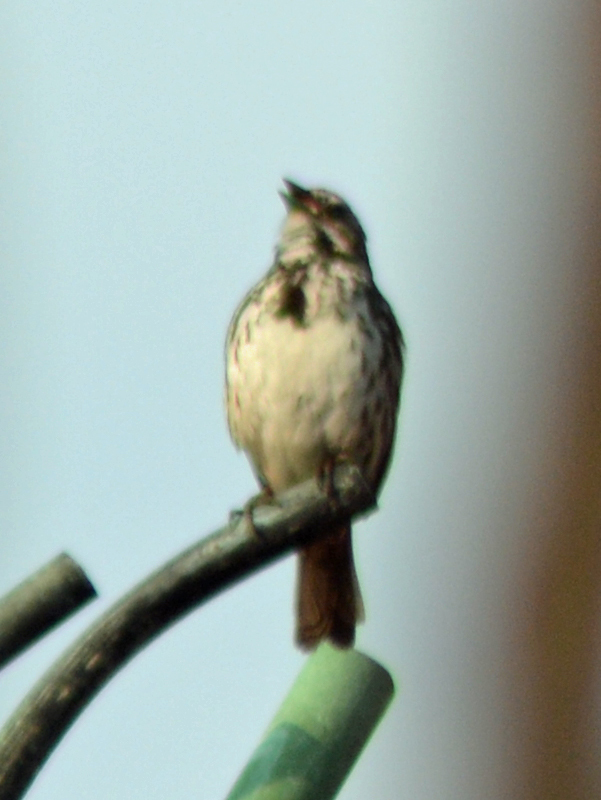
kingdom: Animalia
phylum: Chordata
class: Aves
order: Passeriformes
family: Passerellidae
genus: Melospiza
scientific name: Melospiza melodia
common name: Song sparrow
